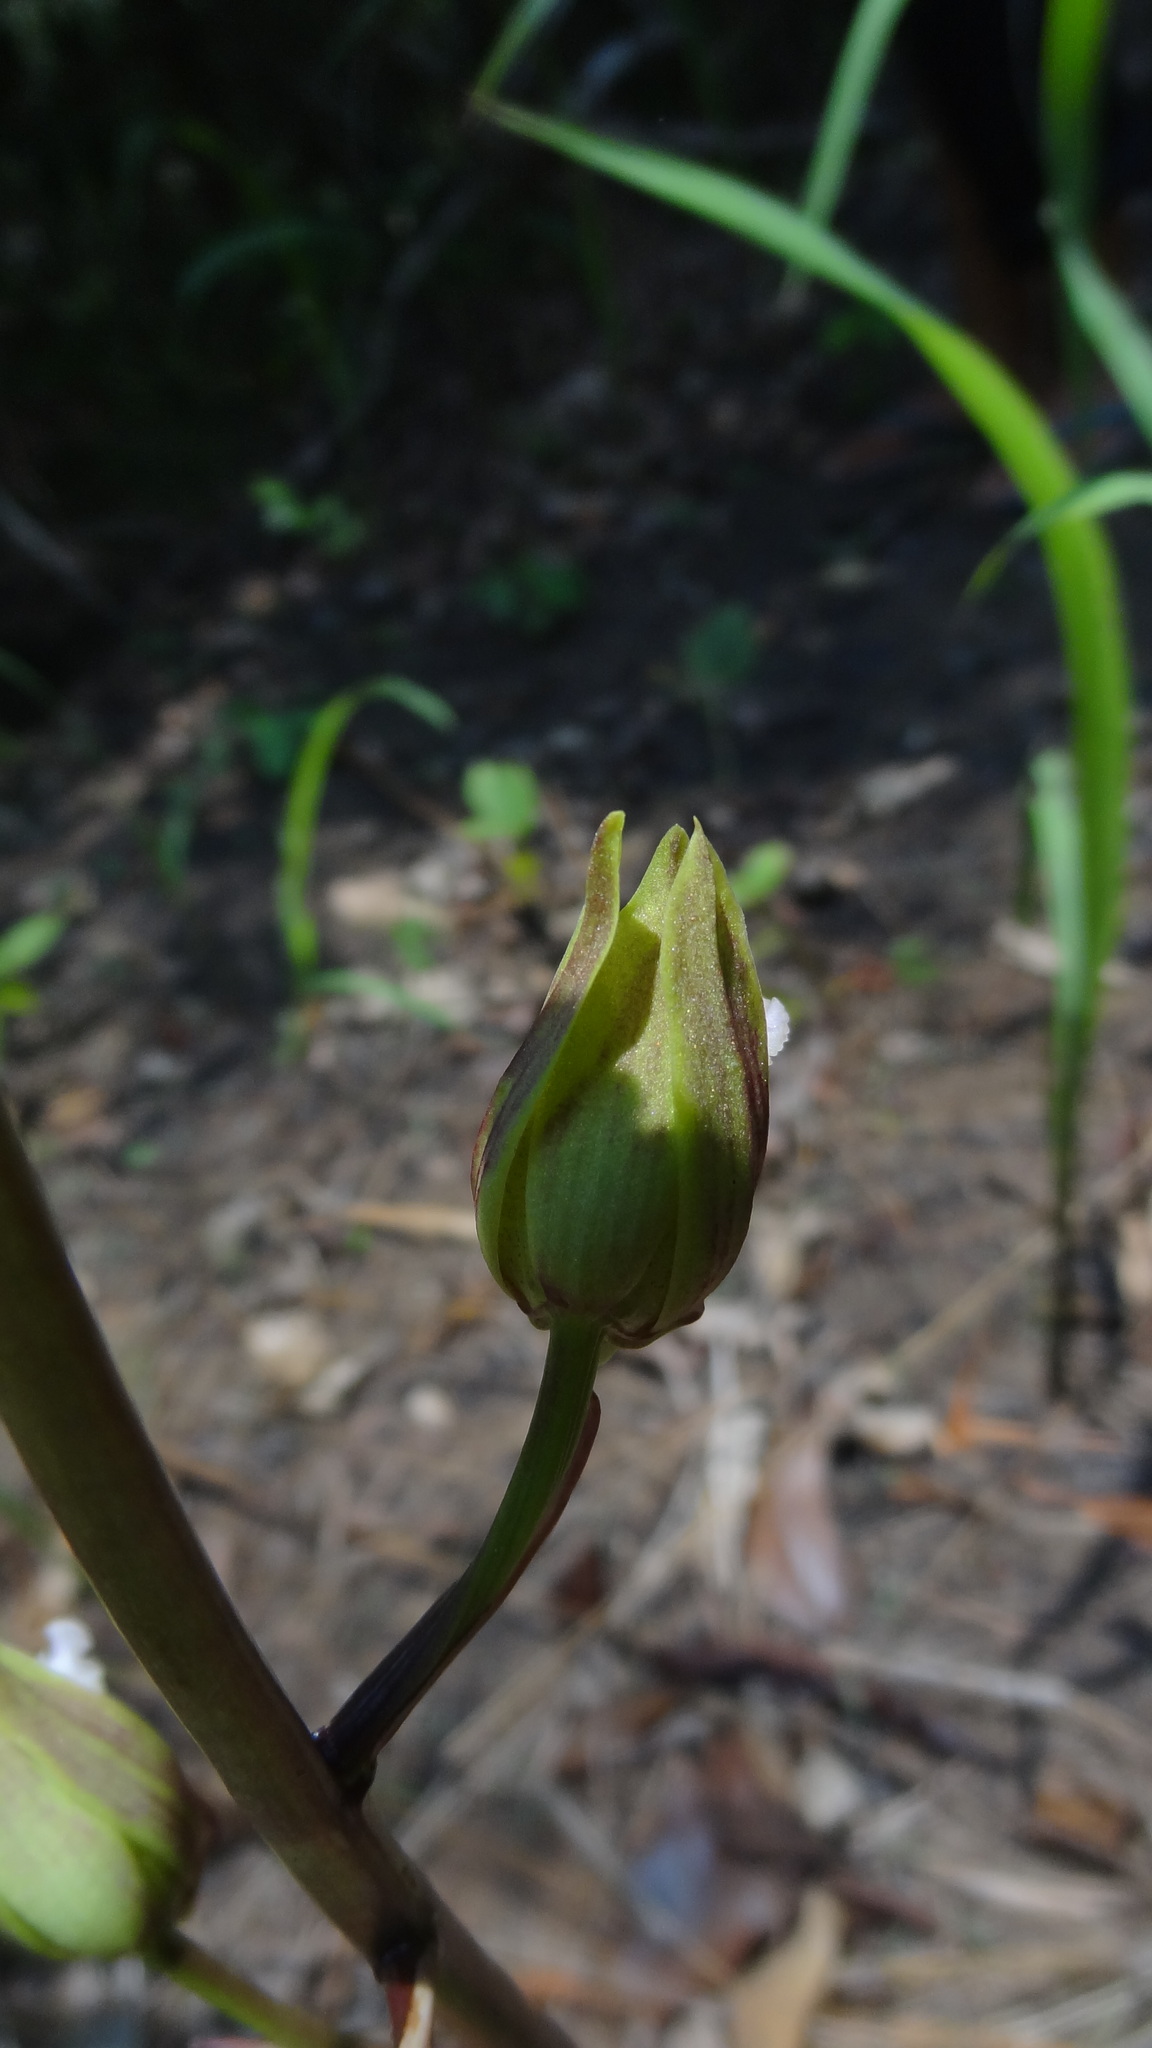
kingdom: Plantae
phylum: Tracheophyta
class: Liliopsida
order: Asparagales
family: Orchidaceae
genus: Eulophia
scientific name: Eulophia nuda
